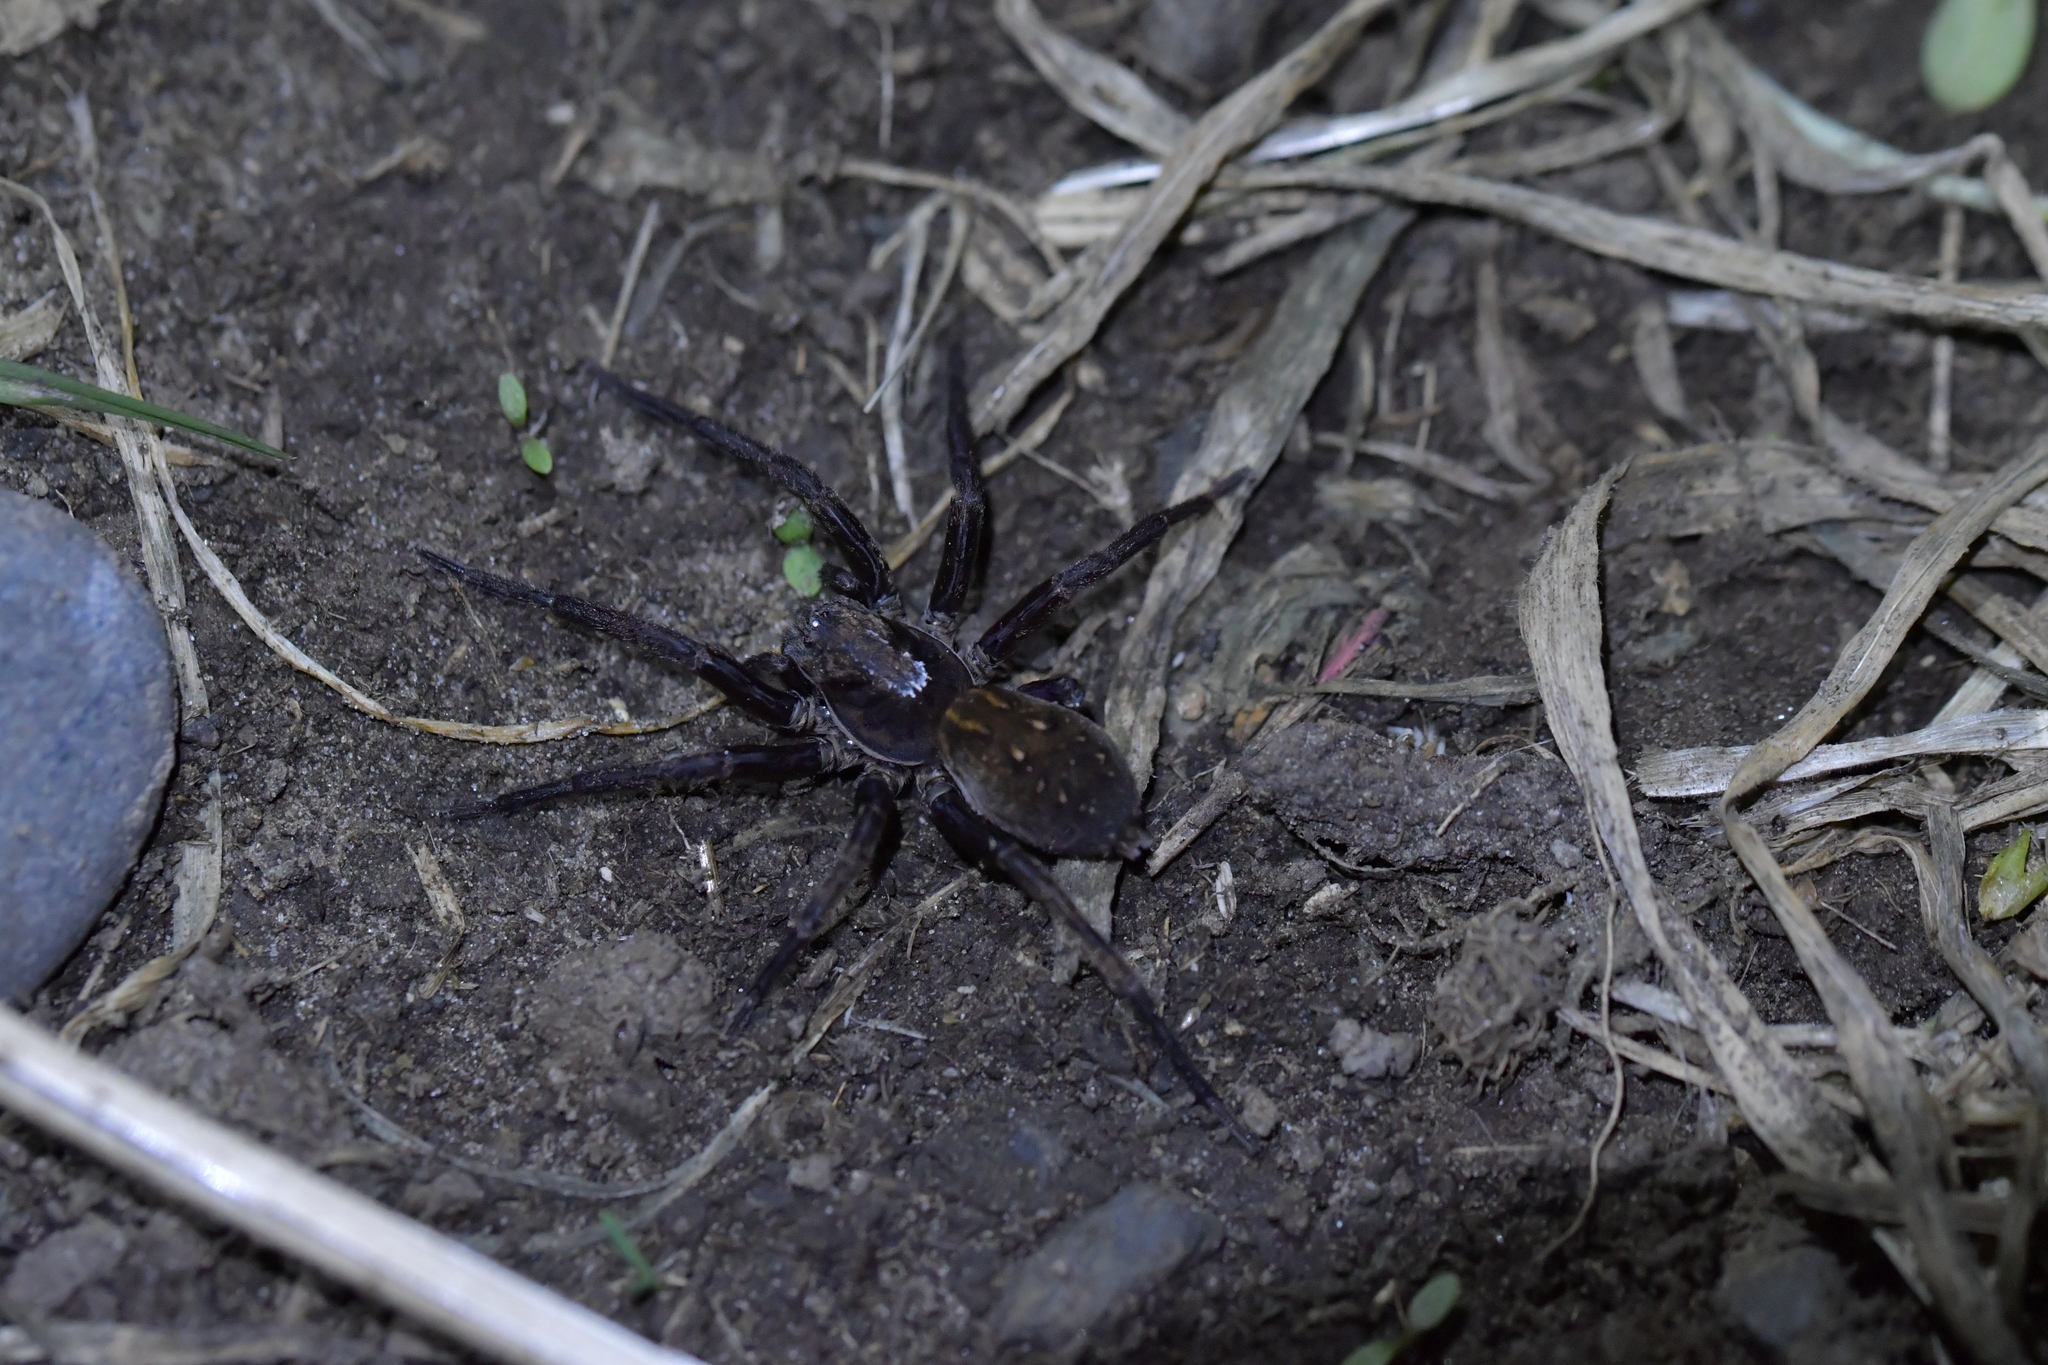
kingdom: Animalia
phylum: Arthropoda
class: Arachnida
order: Araneae
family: Zoropsidae
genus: Uliodon
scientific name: Uliodon albopunctatus
